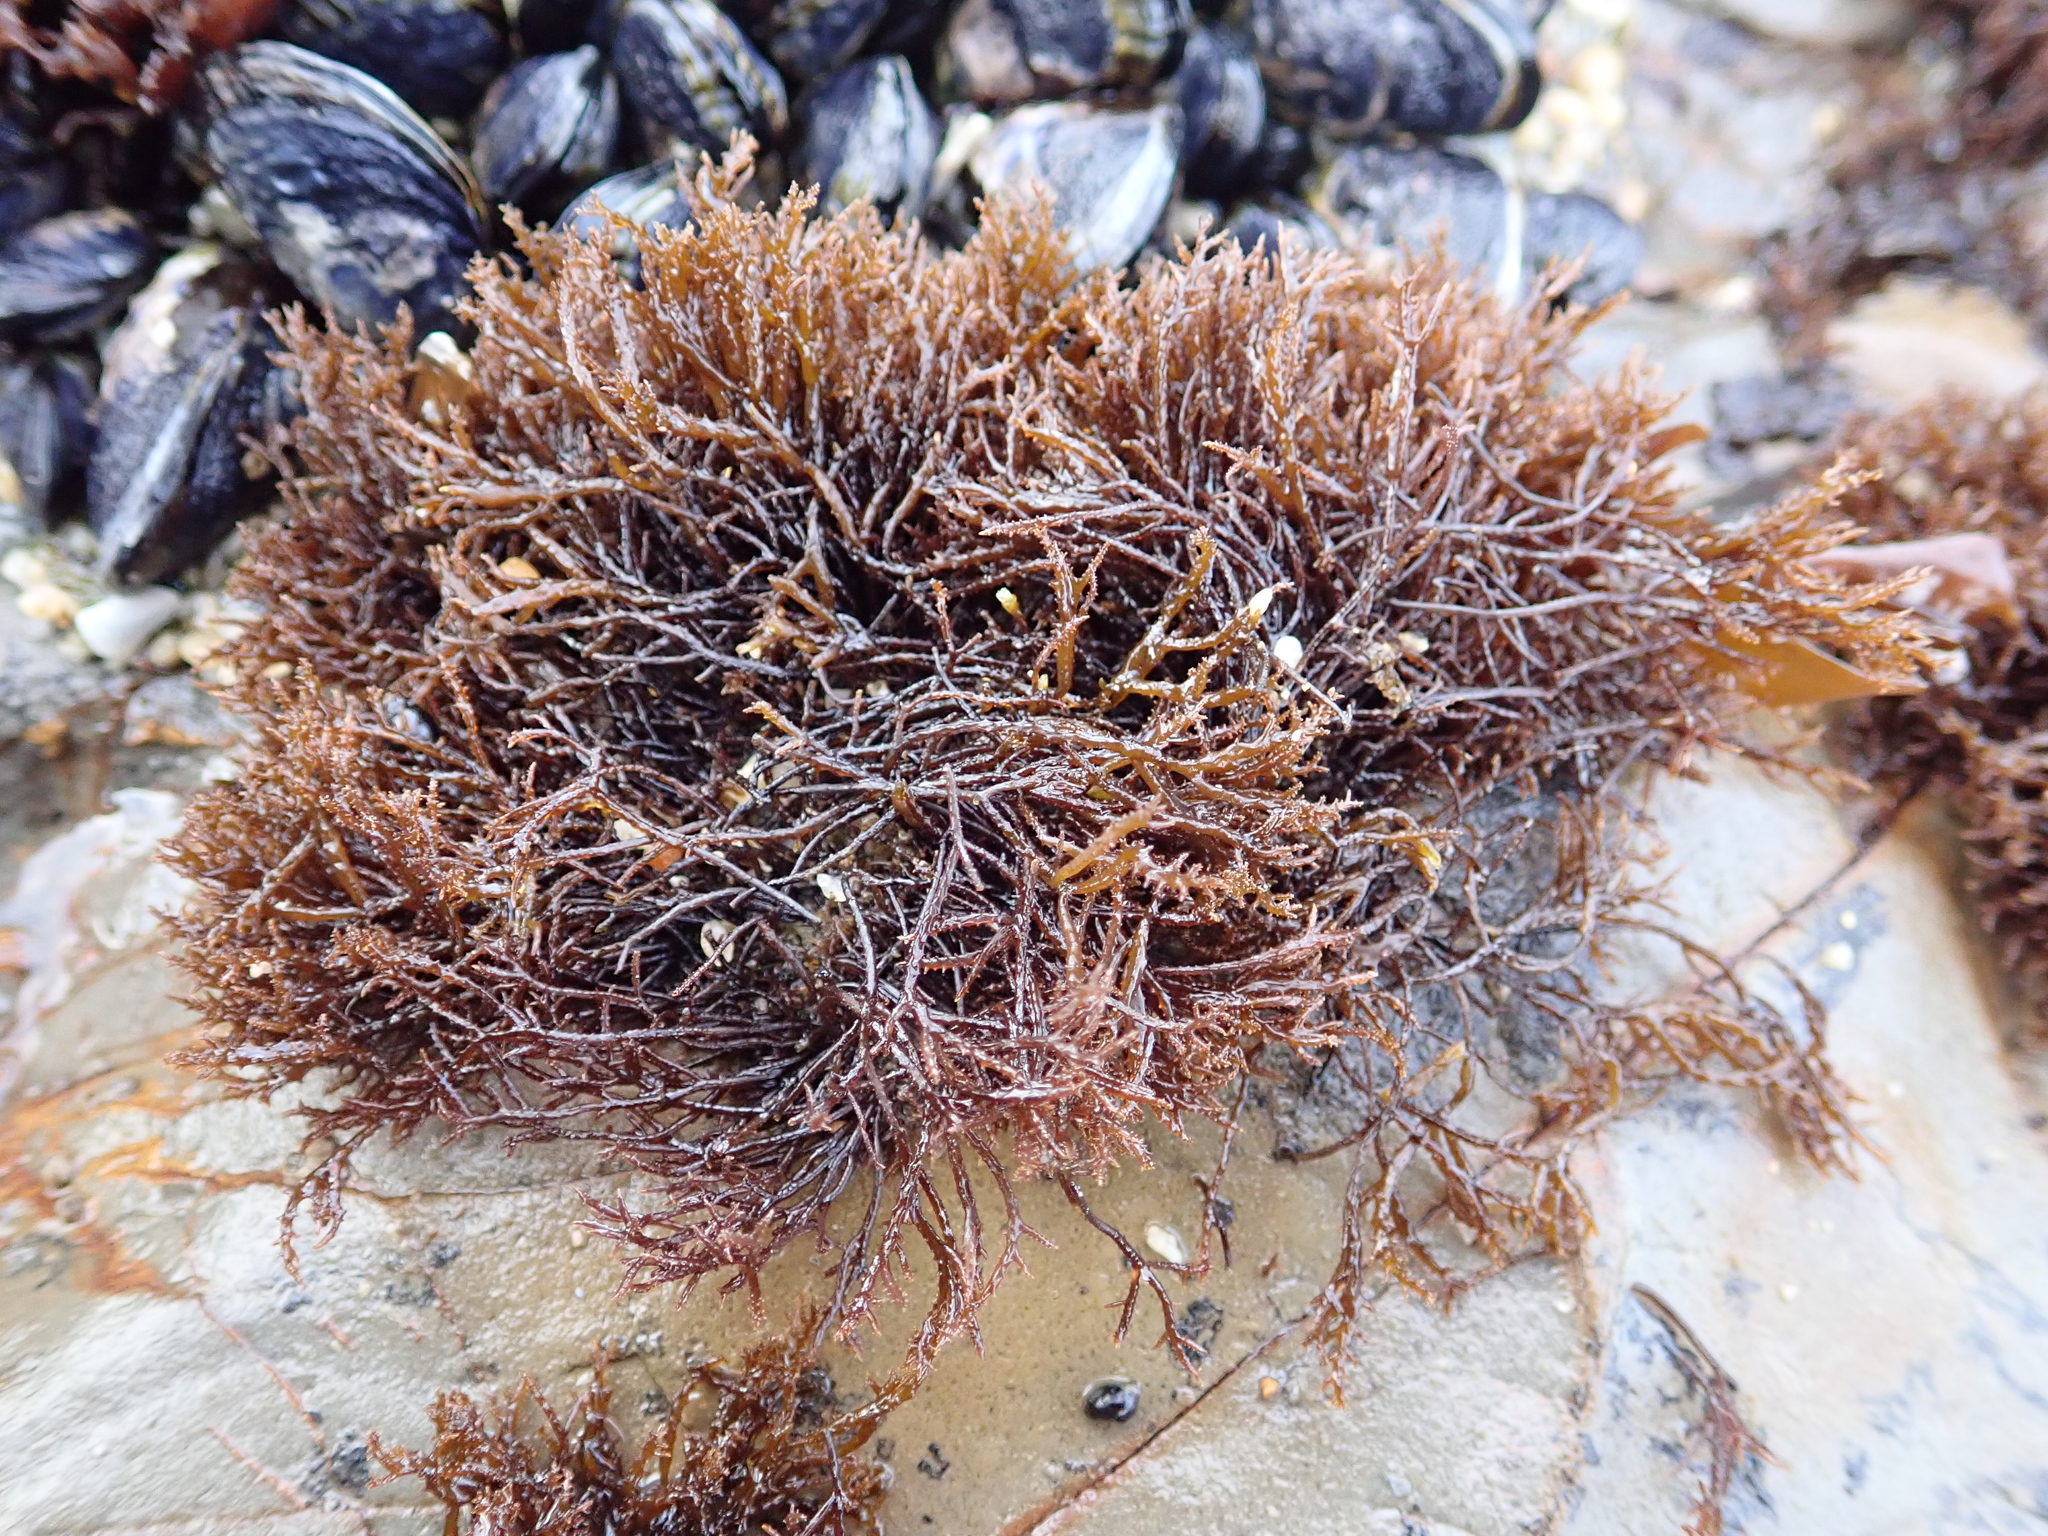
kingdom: Plantae
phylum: Rhodophyta
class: Florideophyceae
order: Gigartinales
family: Endocladiaceae
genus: Endocladia
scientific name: Endocladia muricata
